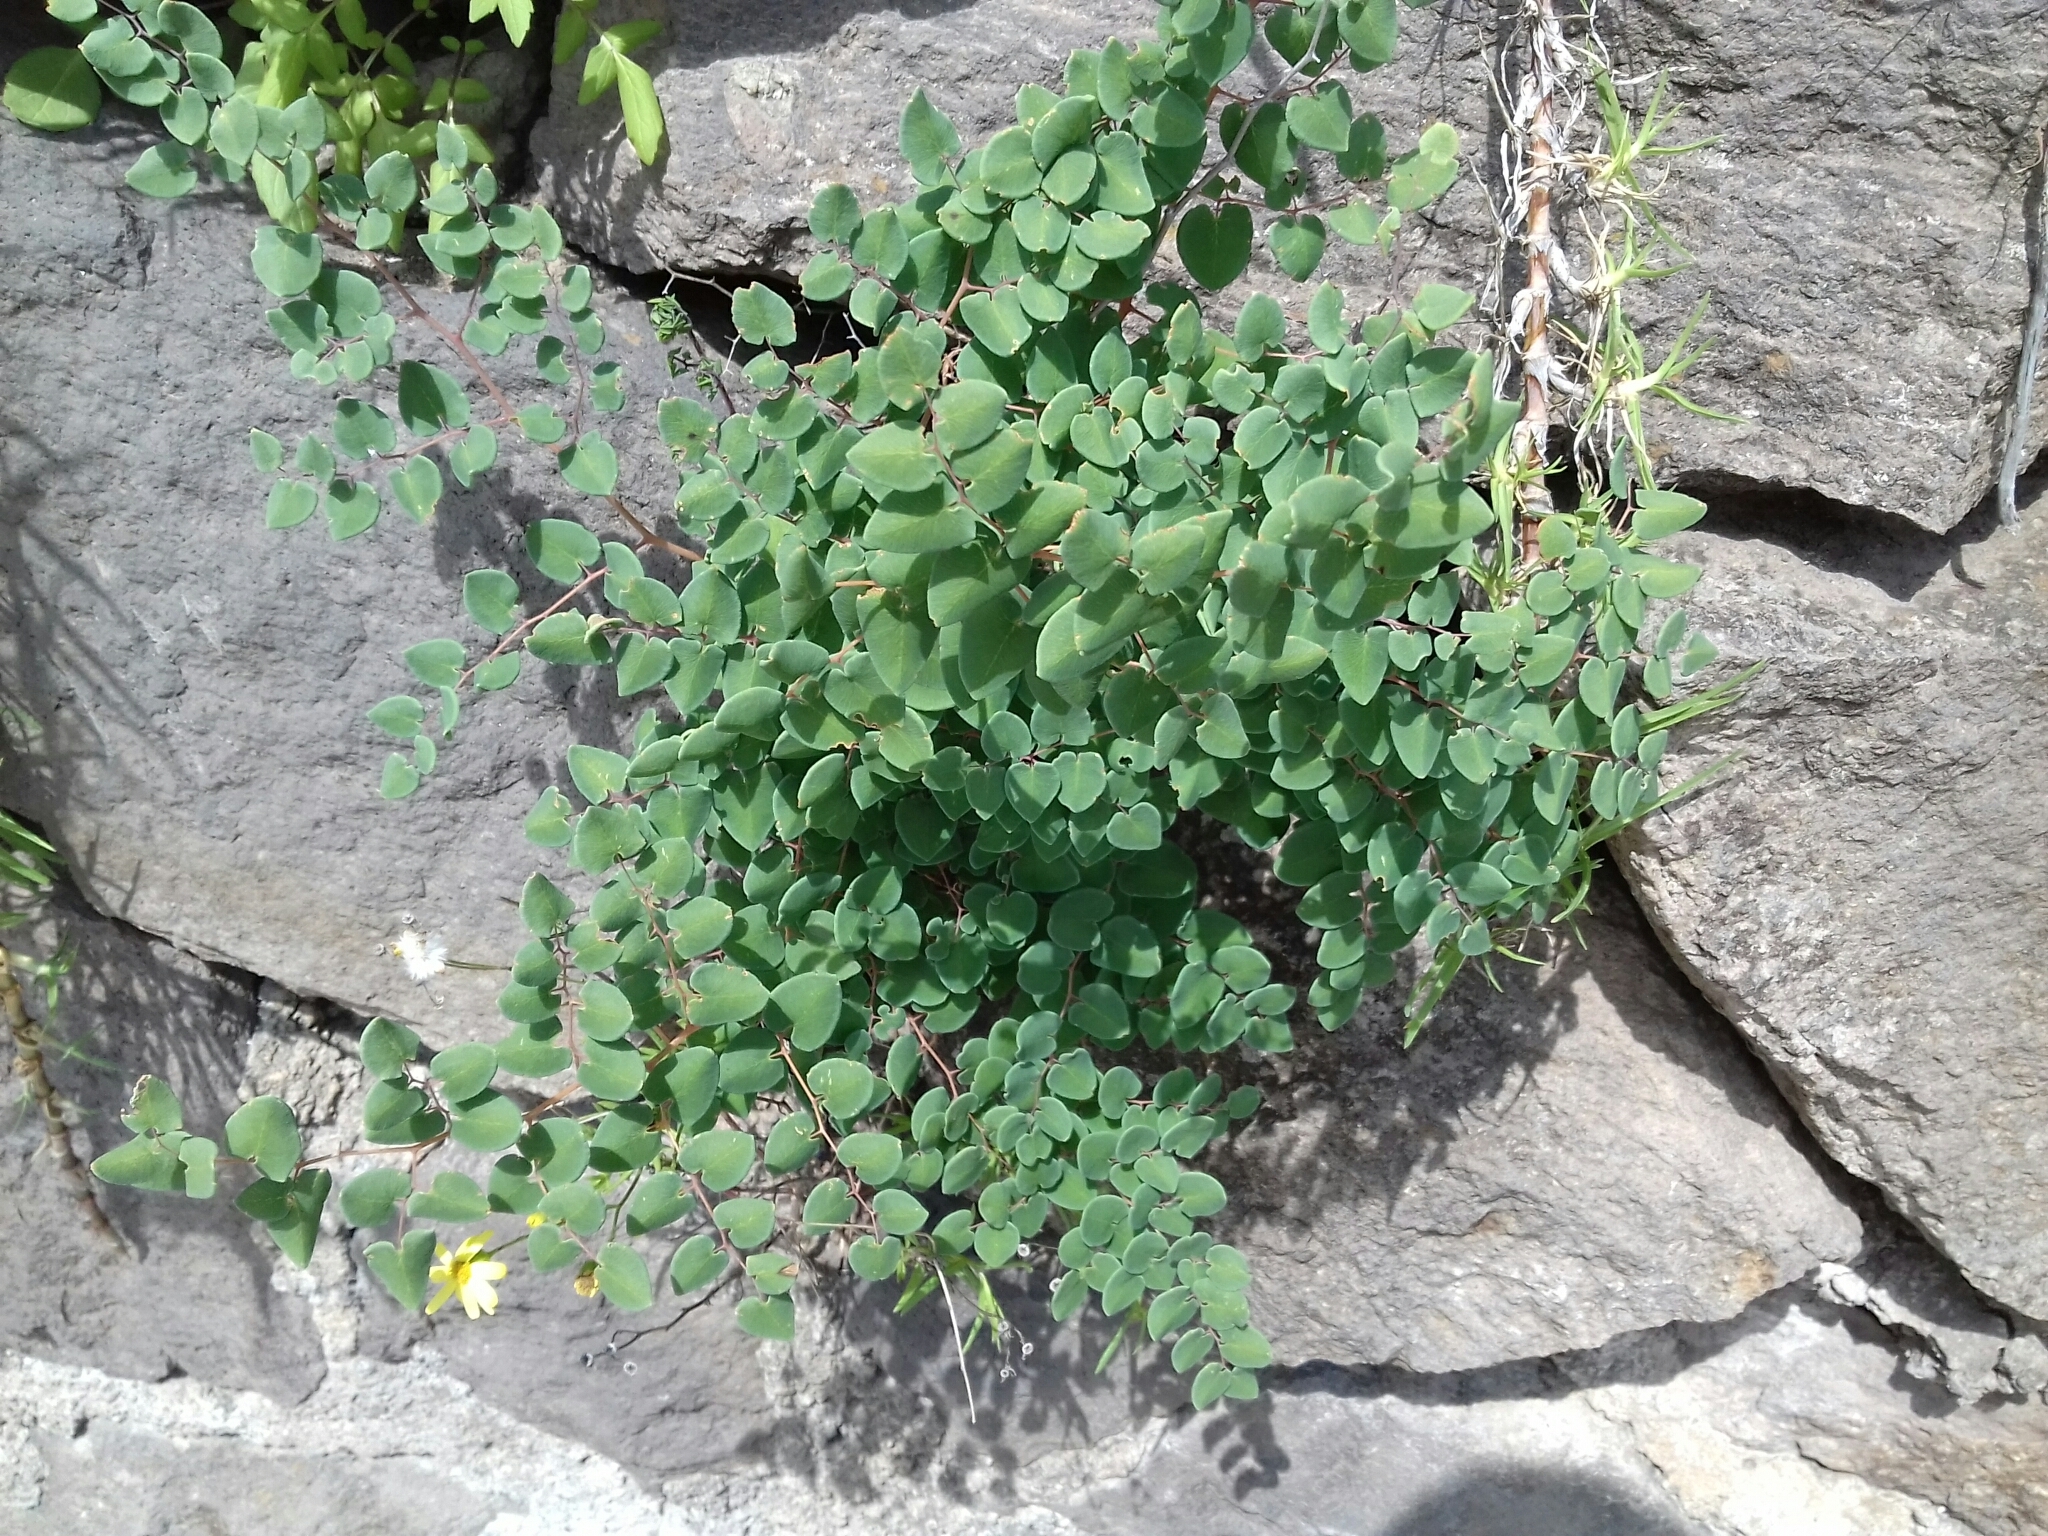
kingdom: Plantae
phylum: Tracheophyta
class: Polypodiopsida
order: Polypodiales
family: Pteridaceae
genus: Pellaea
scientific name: Pellaea cordifolia
